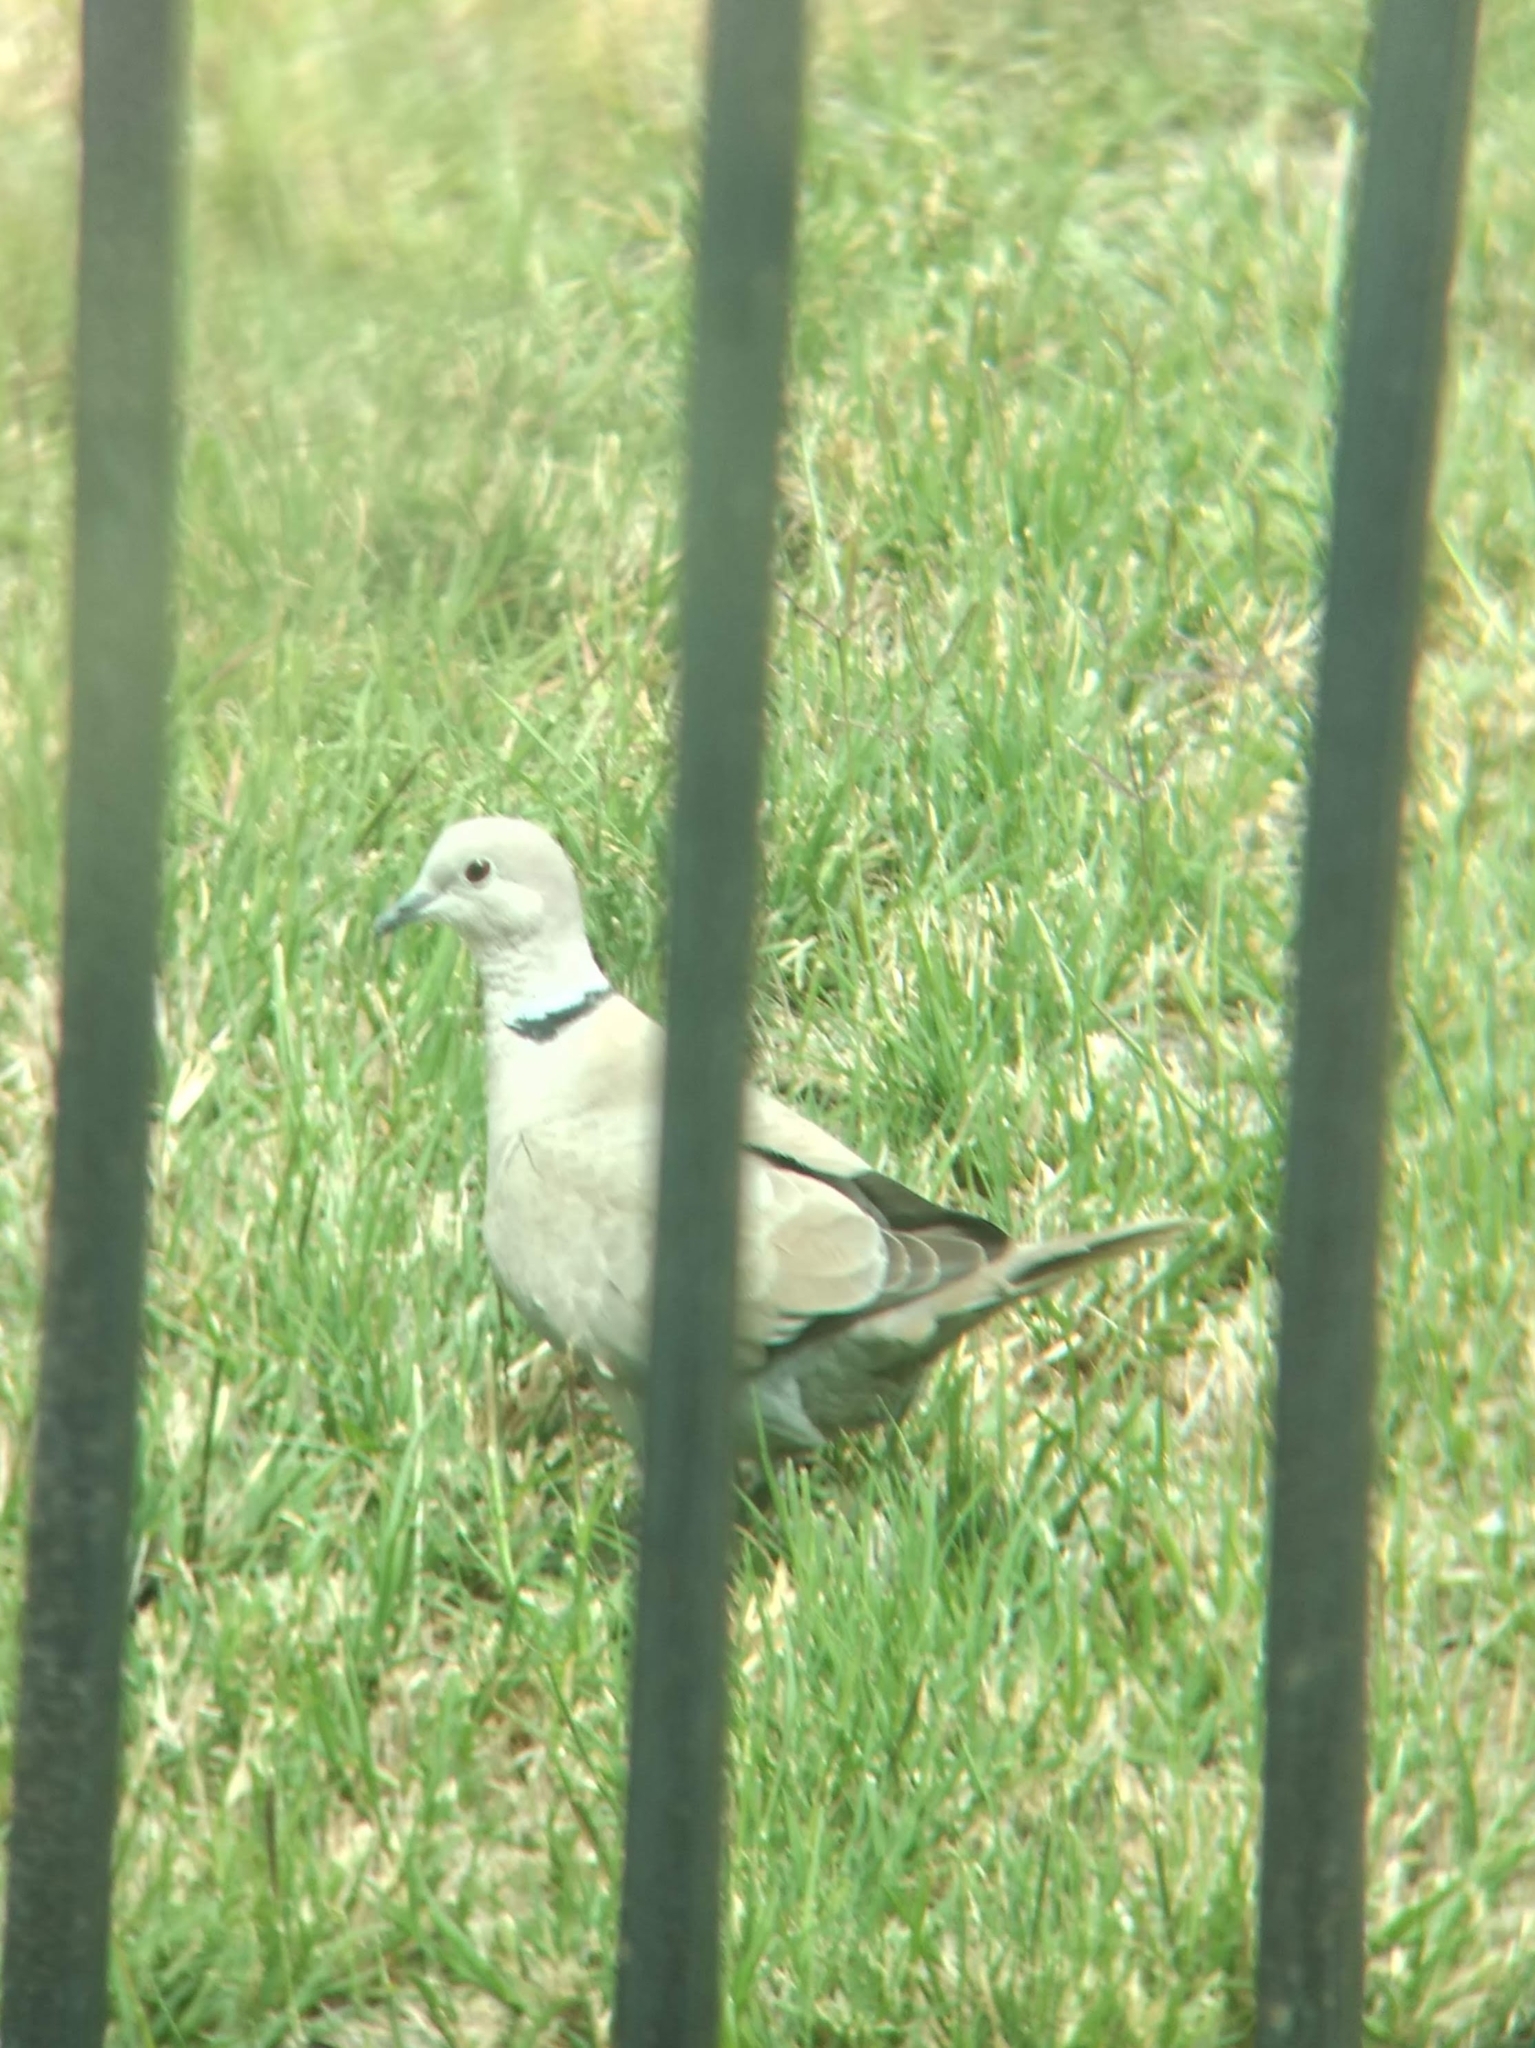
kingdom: Animalia
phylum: Chordata
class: Aves
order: Columbiformes
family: Columbidae
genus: Streptopelia
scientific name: Streptopelia decaocto
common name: Eurasian collared dove
